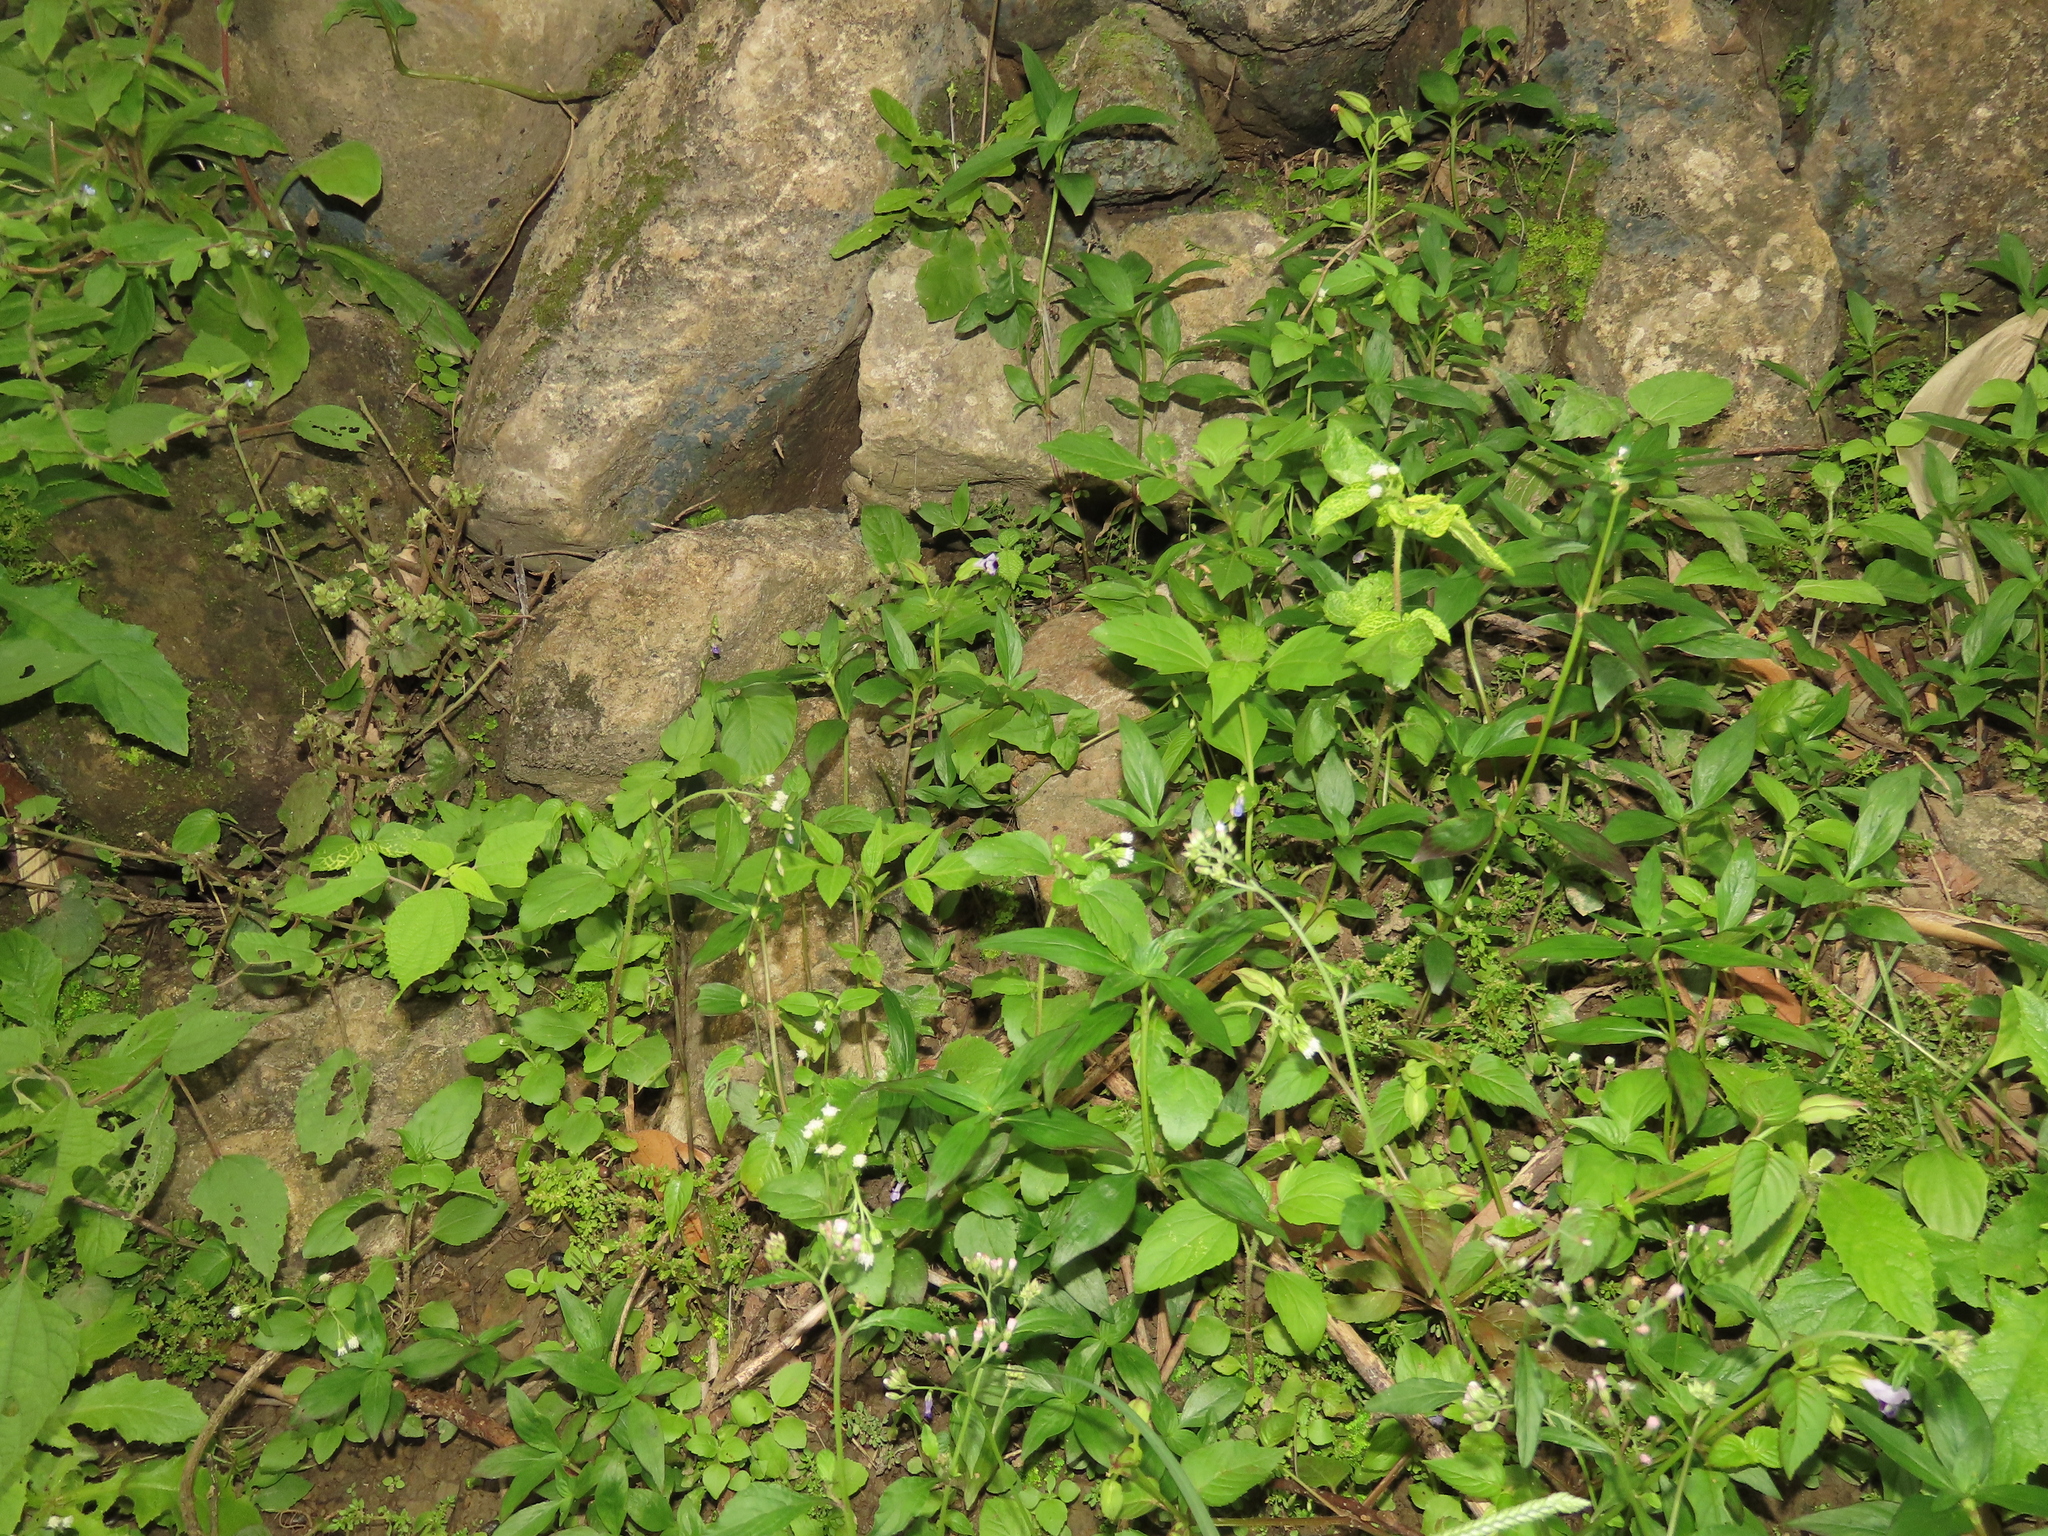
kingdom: Plantae
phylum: Tracheophyta
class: Magnoliopsida
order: Lamiales
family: Gesneriaceae
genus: Rhynchoglossum
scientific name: Rhynchoglossum obliquum
